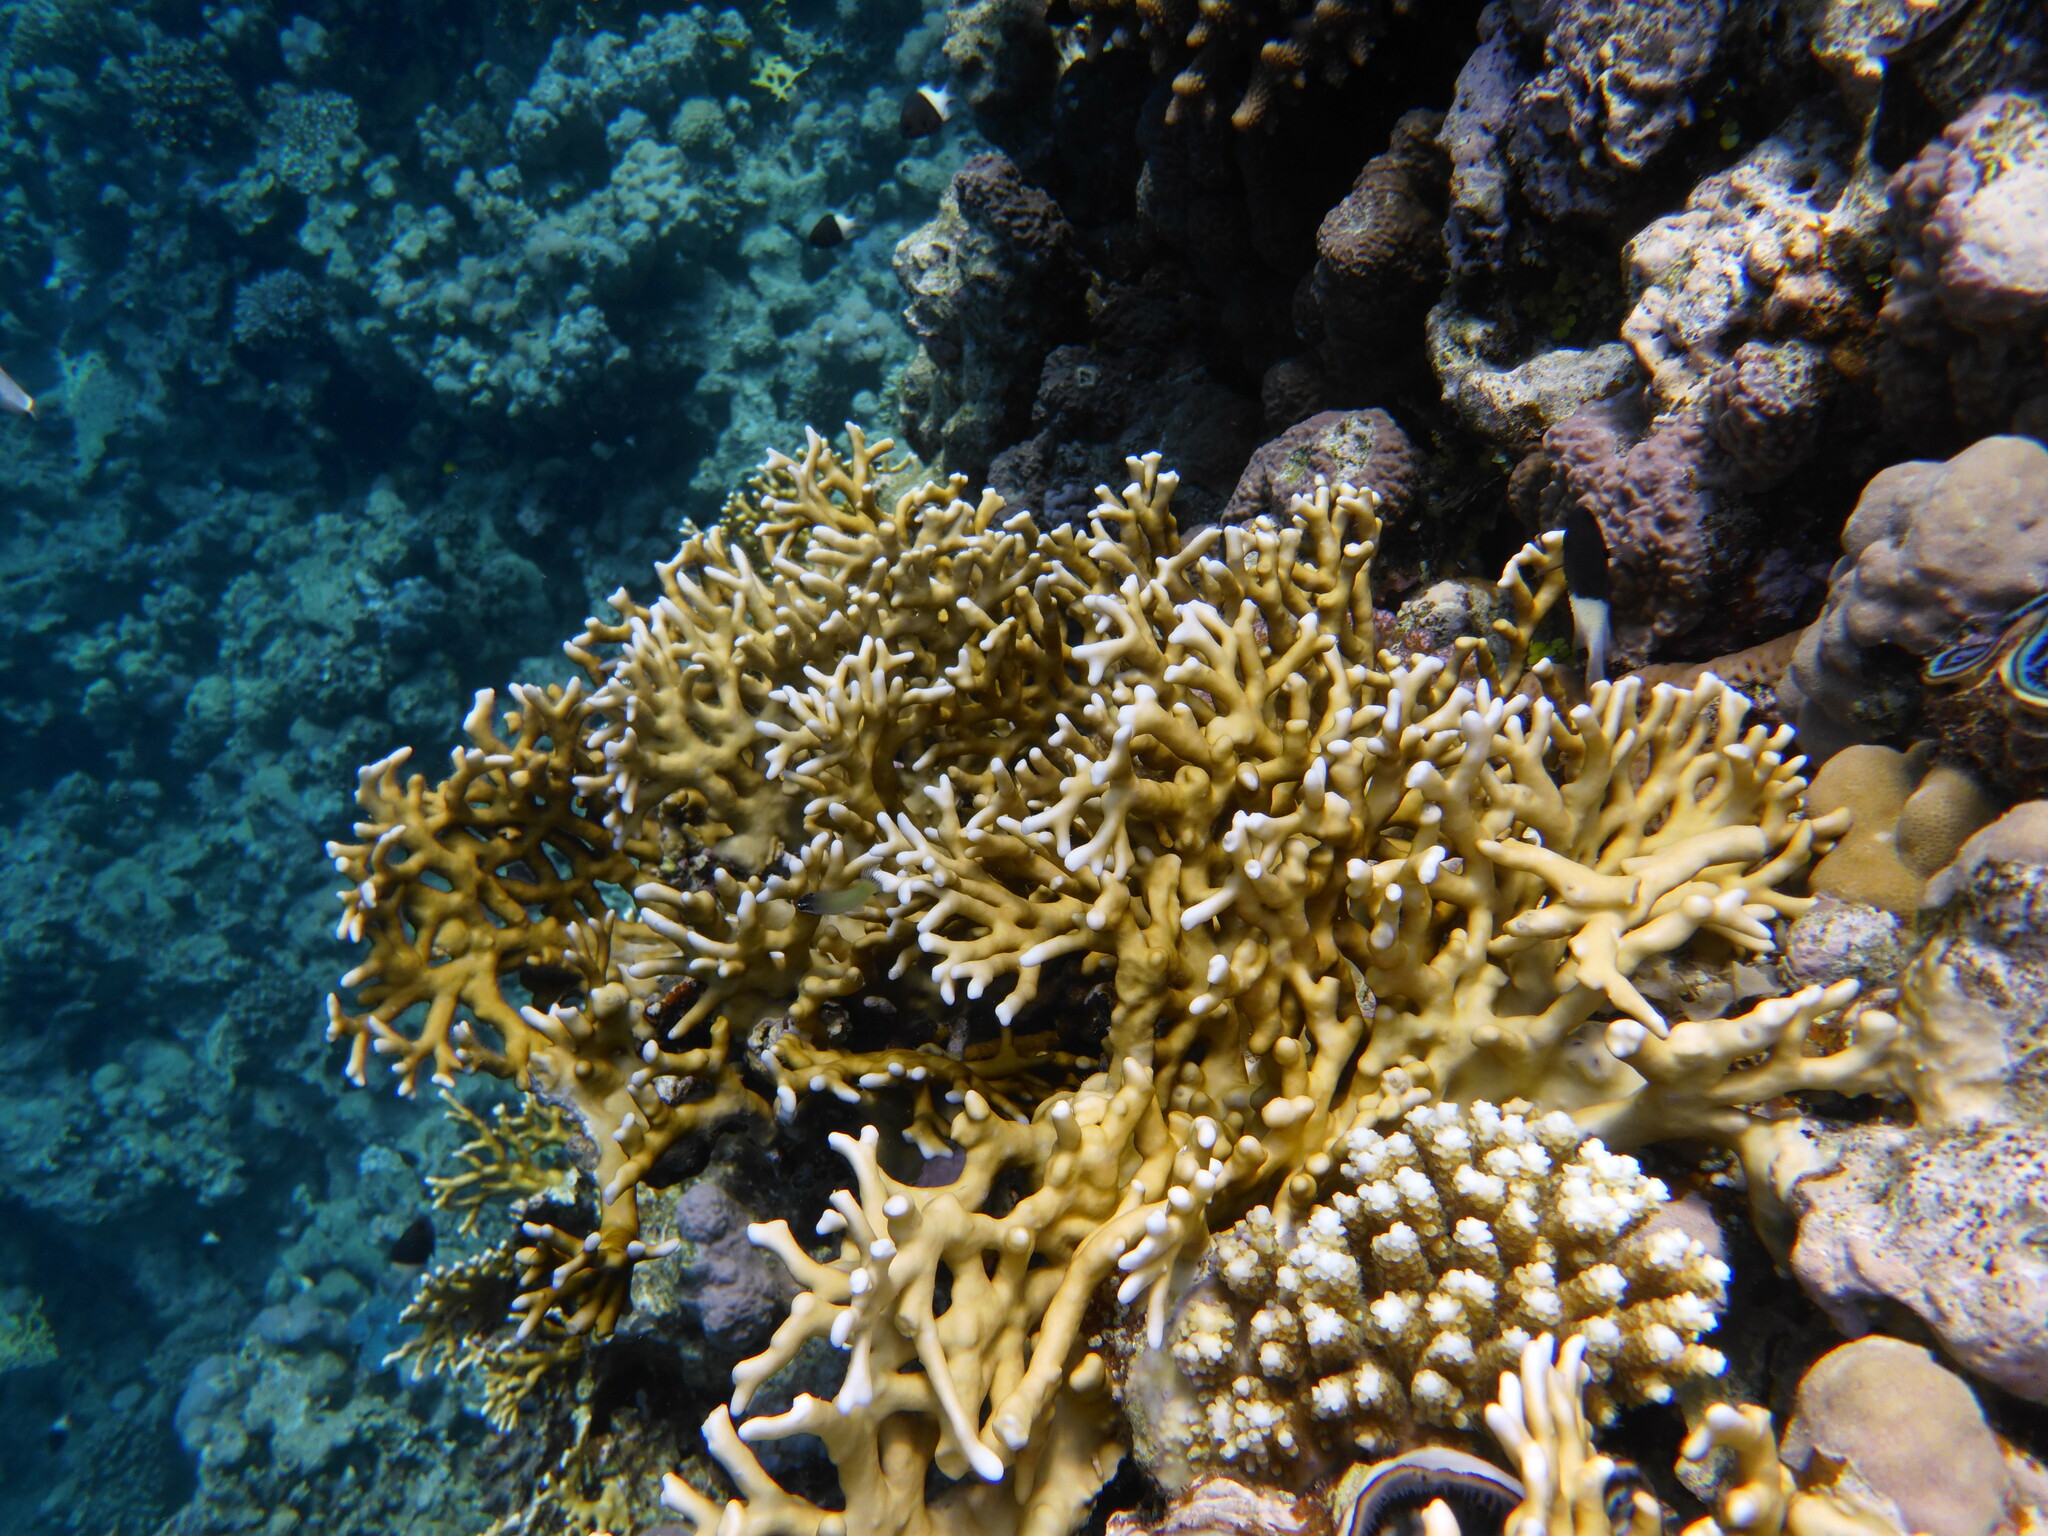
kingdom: Animalia
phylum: Cnidaria
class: Hydrozoa
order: Anthoathecata
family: Milleporidae
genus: Millepora
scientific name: Millepora dichotoma
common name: Ramified fire coral
